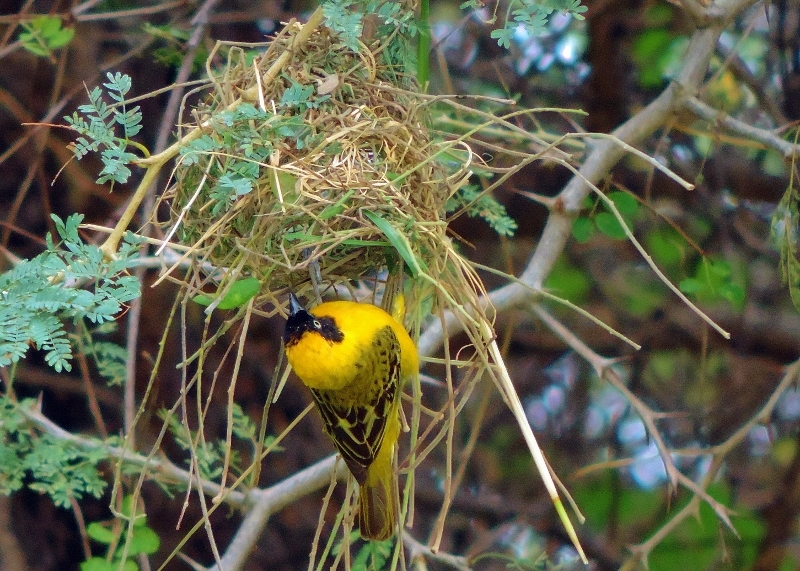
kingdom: Animalia
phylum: Chordata
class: Aves
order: Passeriformes
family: Ploceidae
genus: Ploceus
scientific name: Ploceus intermedius
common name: Lesser masked weaver
